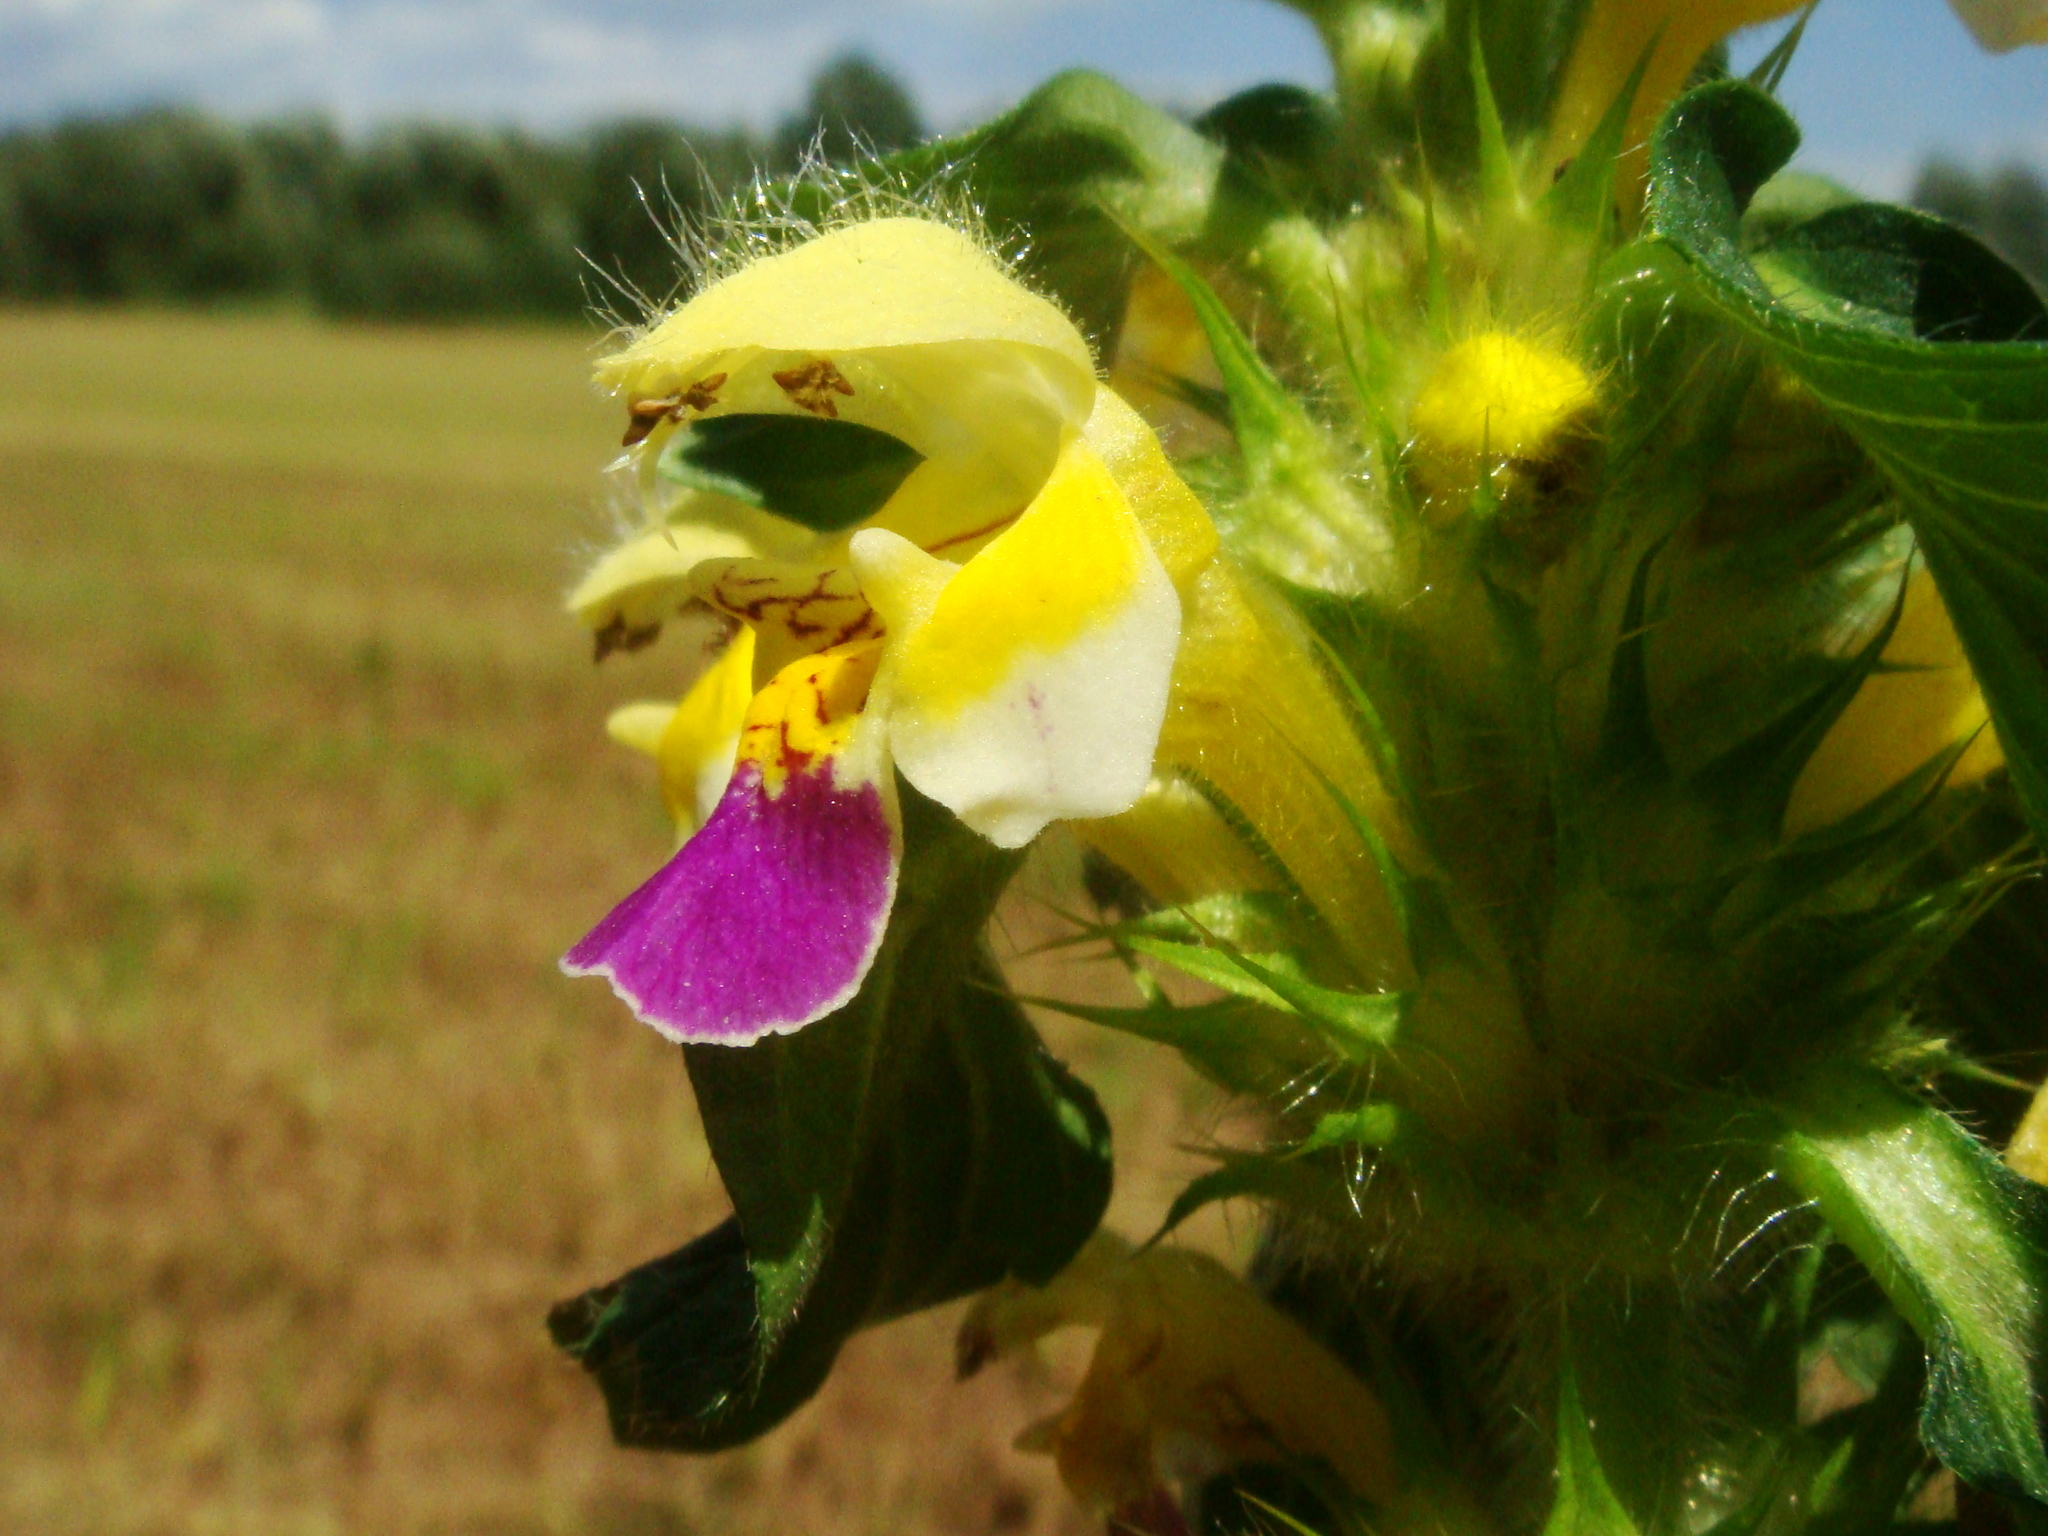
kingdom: Plantae
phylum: Tracheophyta
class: Magnoliopsida
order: Lamiales
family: Lamiaceae
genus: Galeopsis
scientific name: Galeopsis speciosa
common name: Large-flowered hemp-nettle
